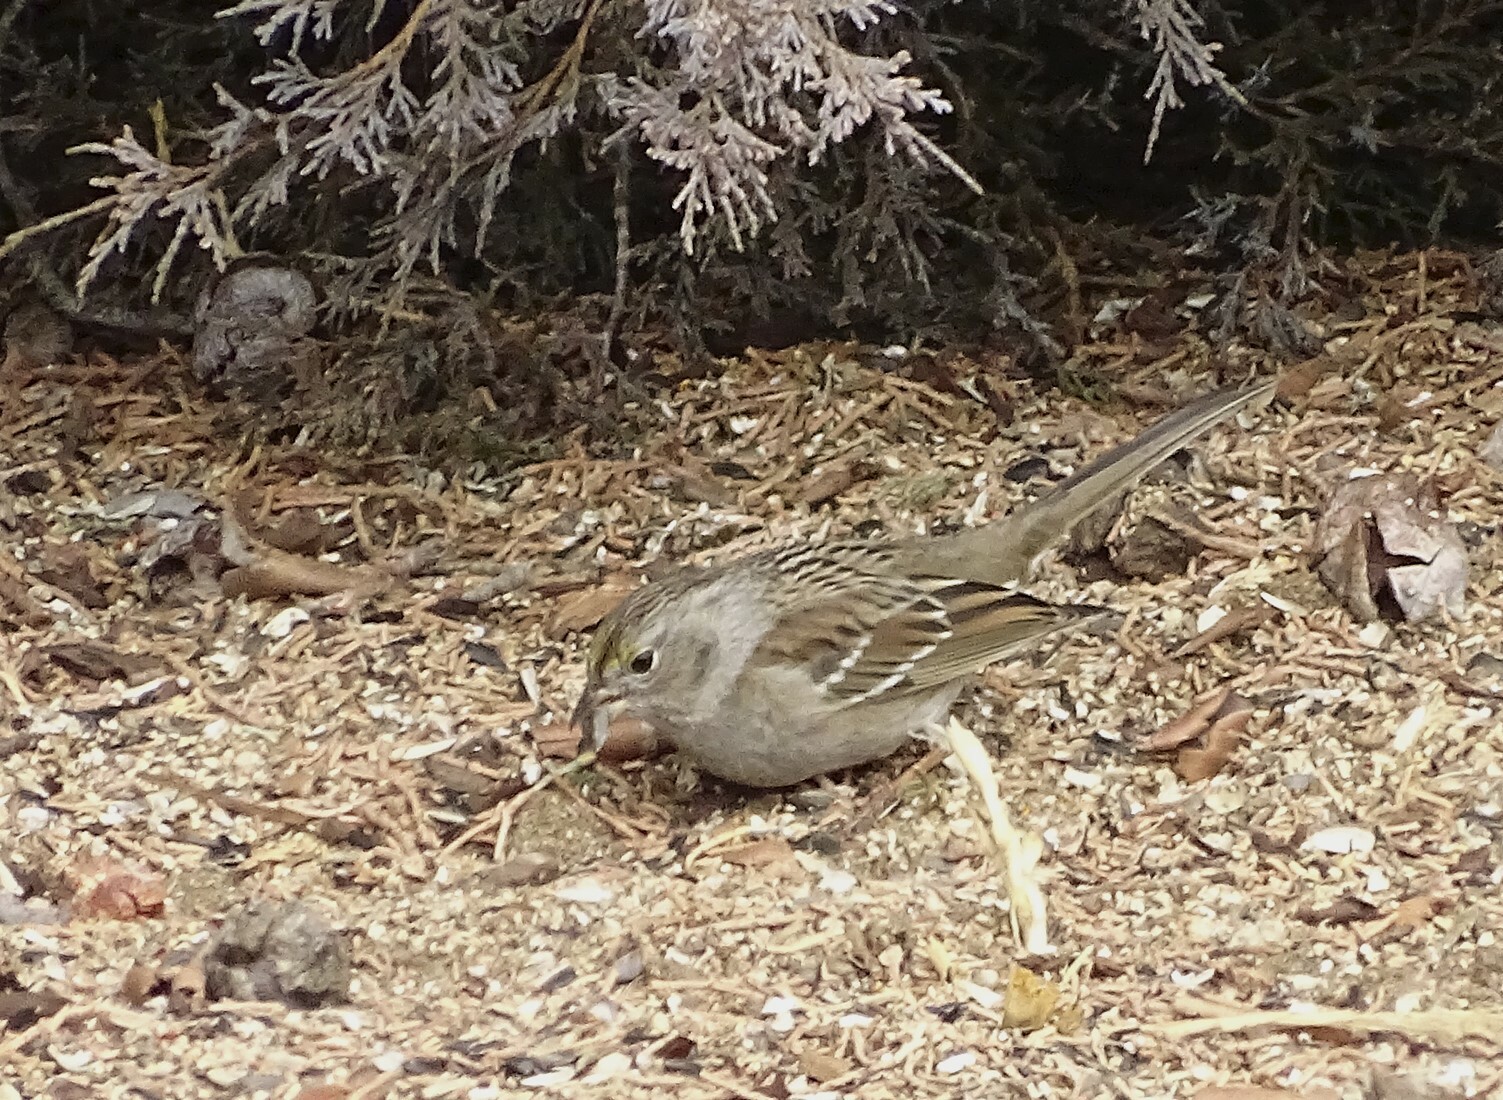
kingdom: Animalia
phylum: Chordata
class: Aves
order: Passeriformes
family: Passerellidae
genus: Zonotrichia
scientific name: Zonotrichia atricapilla
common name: Golden-crowned sparrow
